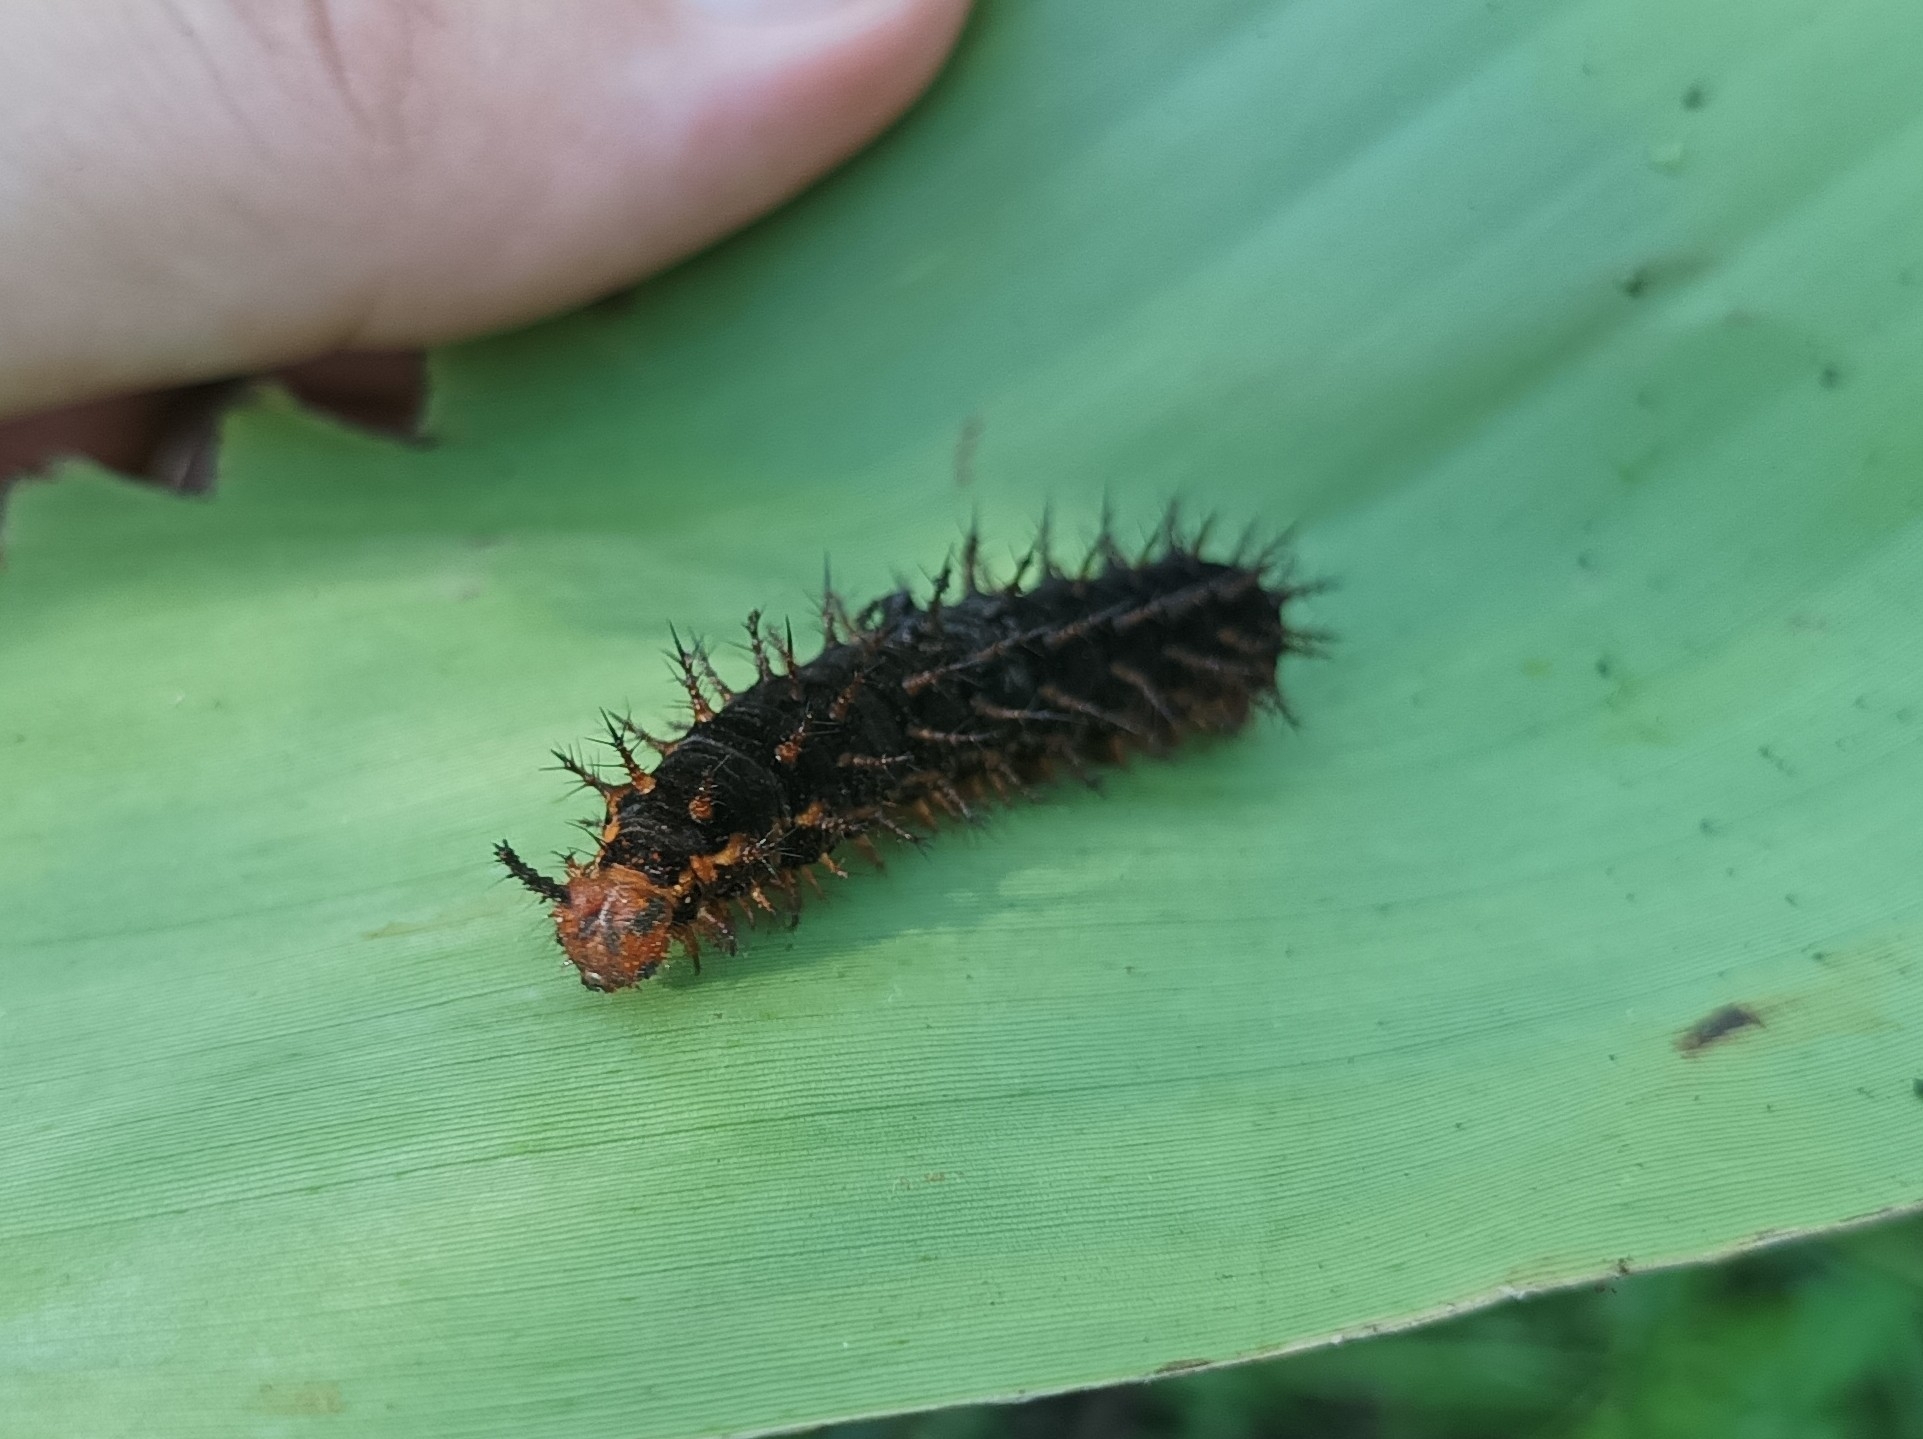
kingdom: Animalia
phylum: Arthropoda
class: Insecta
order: Lepidoptera
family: Nymphalidae
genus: Hypolimnas
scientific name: Hypolimnas bolina
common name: Great eggfly
